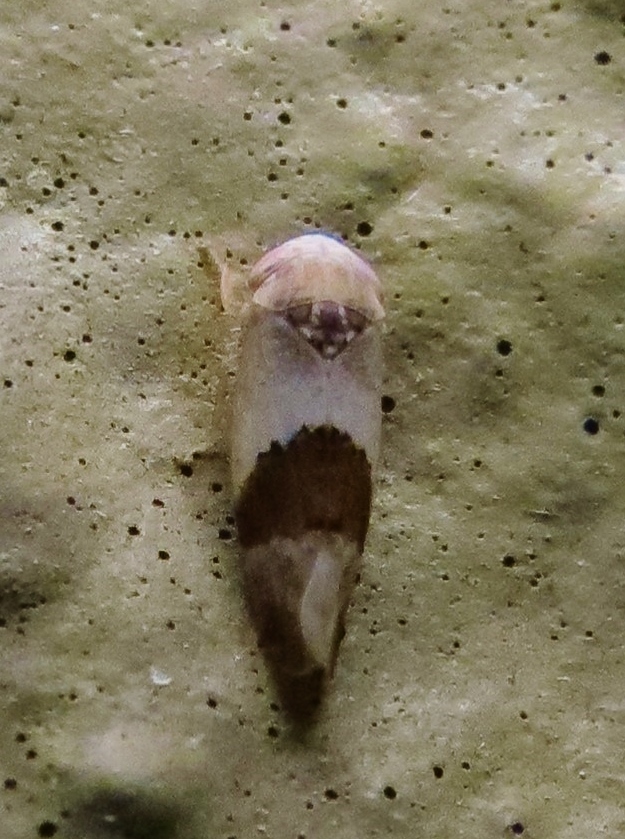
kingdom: Animalia
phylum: Arthropoda
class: Insecta
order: Hemiptera
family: Cicadellidae
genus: Norvellina
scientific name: Norvellina seminuda
